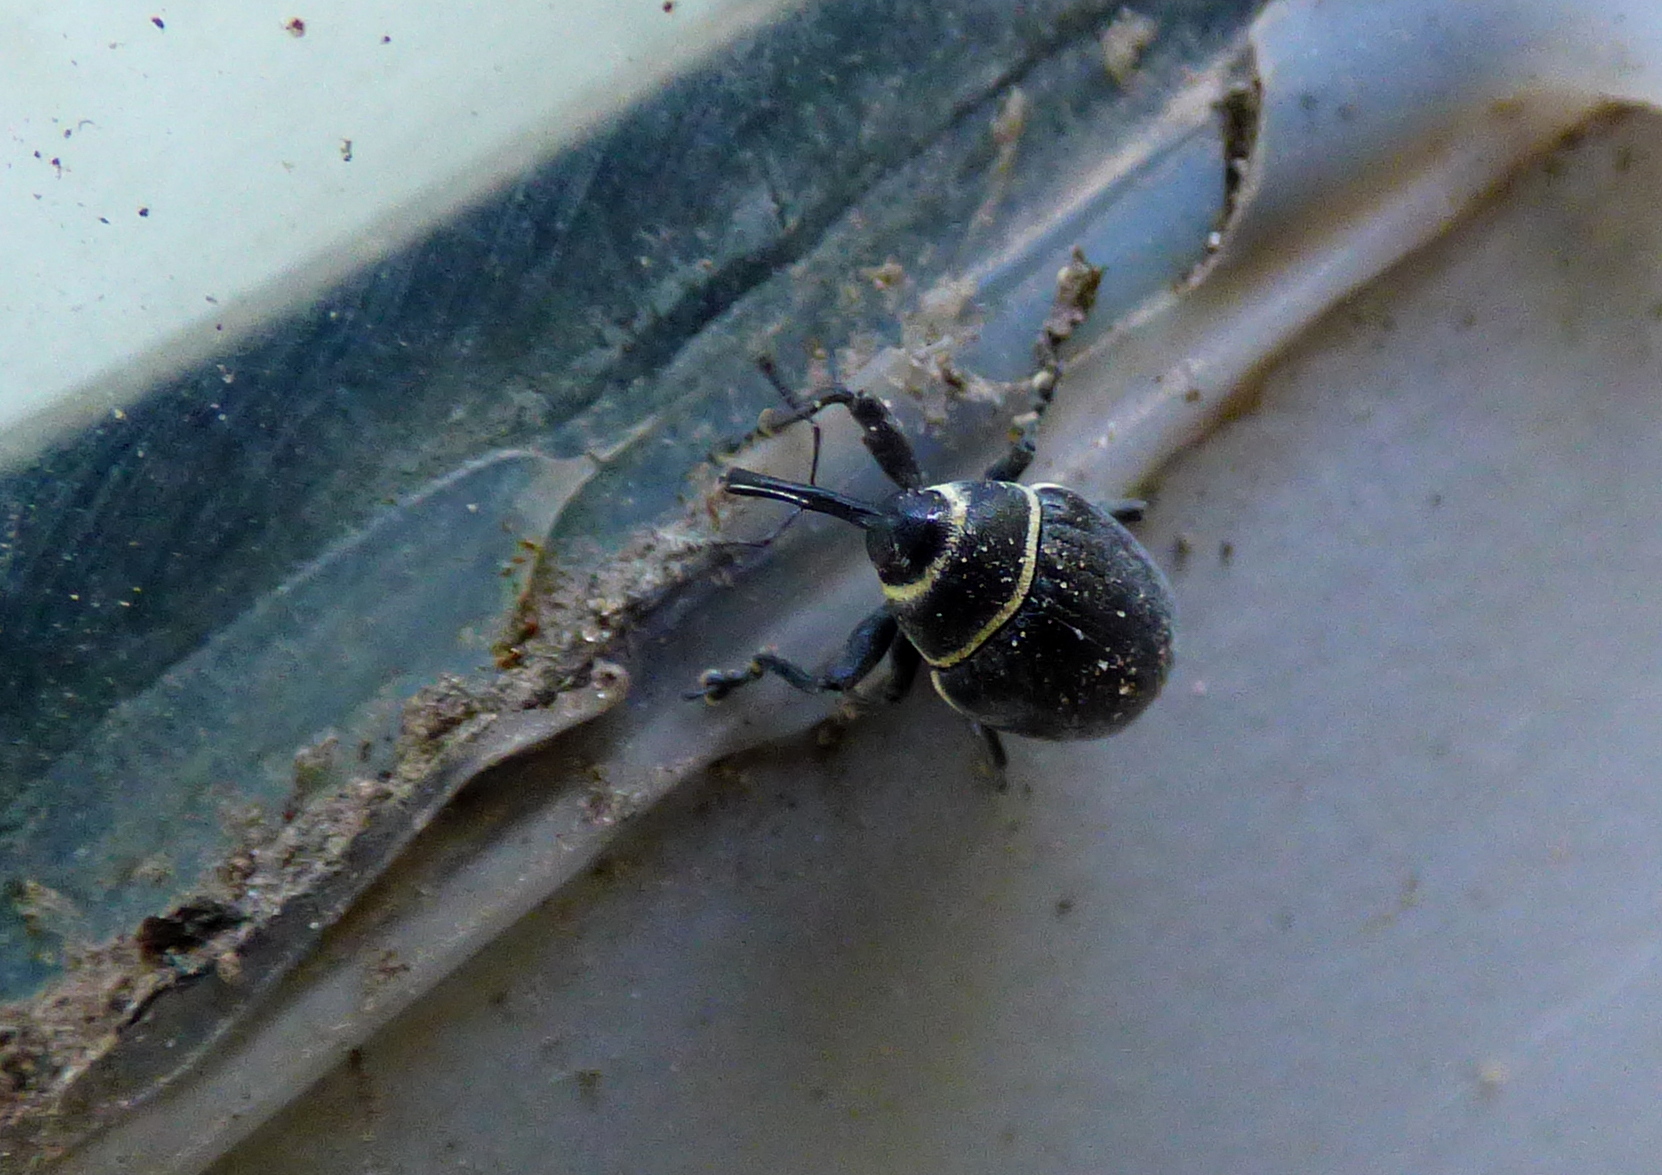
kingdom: Animalia
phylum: Arthropoda
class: Insecta
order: Coleoptera
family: Curculionidae
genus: Rhyssomatus
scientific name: Rhyssomatus marginatus
